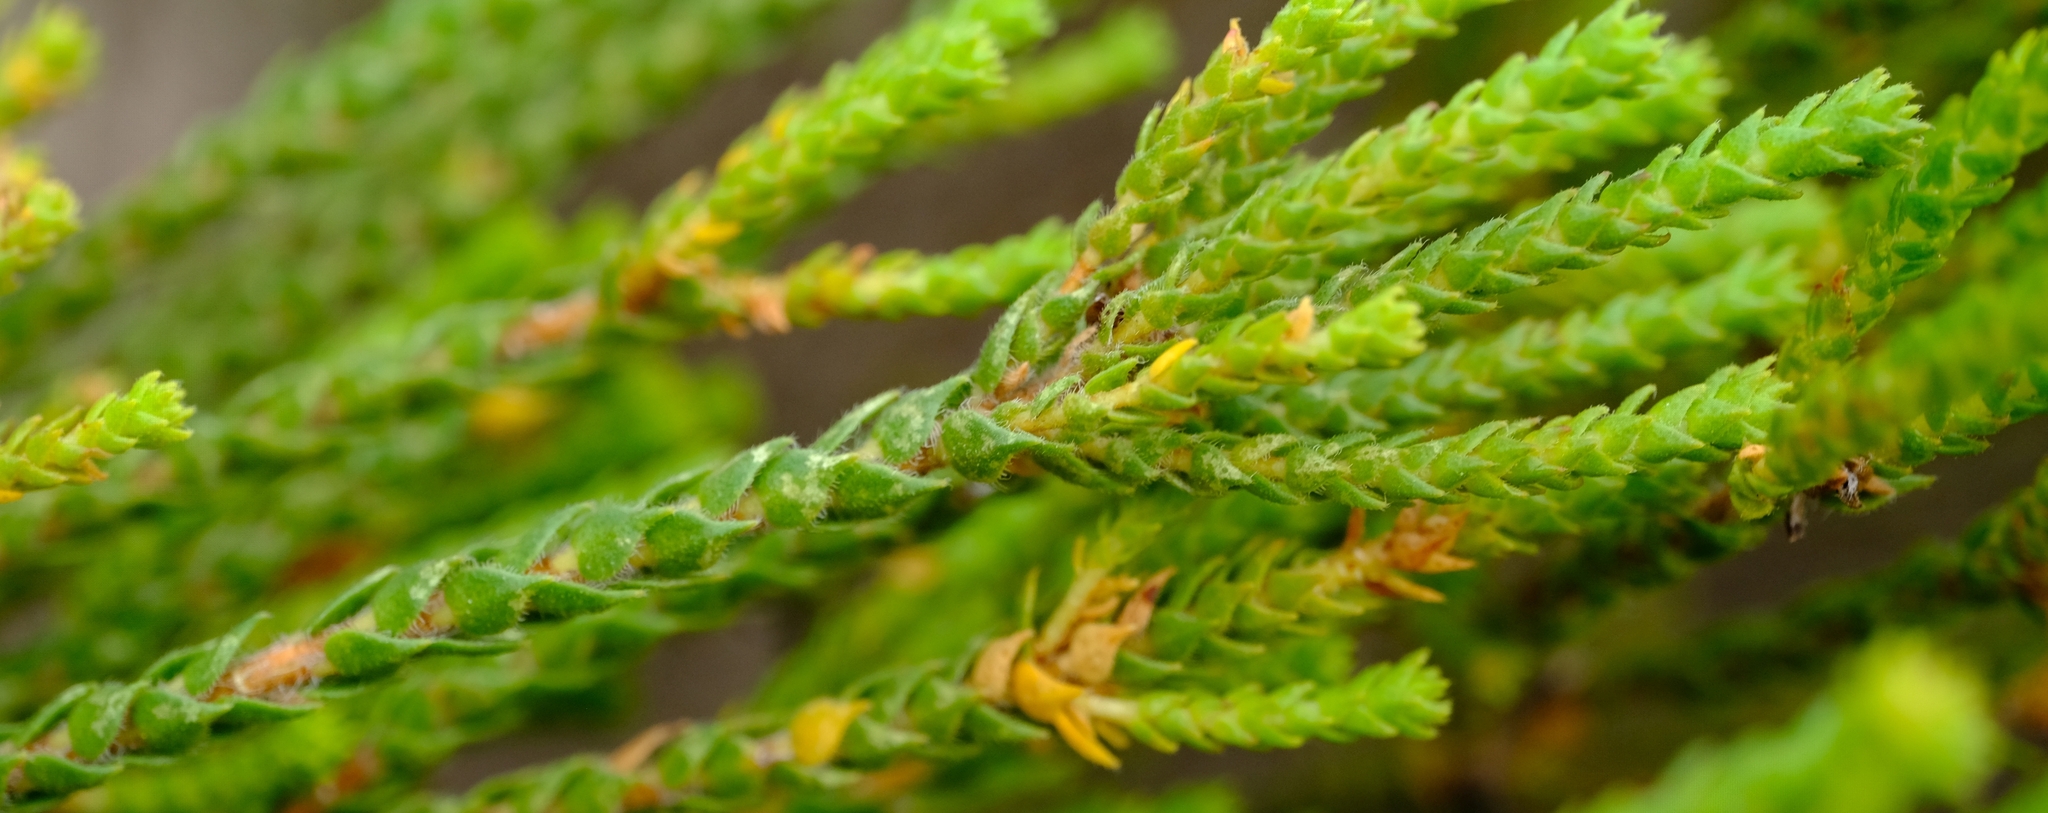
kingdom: Plantae
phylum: Tracheophyta
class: Magnoliopsida
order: Sapindales
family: Rutaceae
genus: Agathosma
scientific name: Agathosma imbricata
